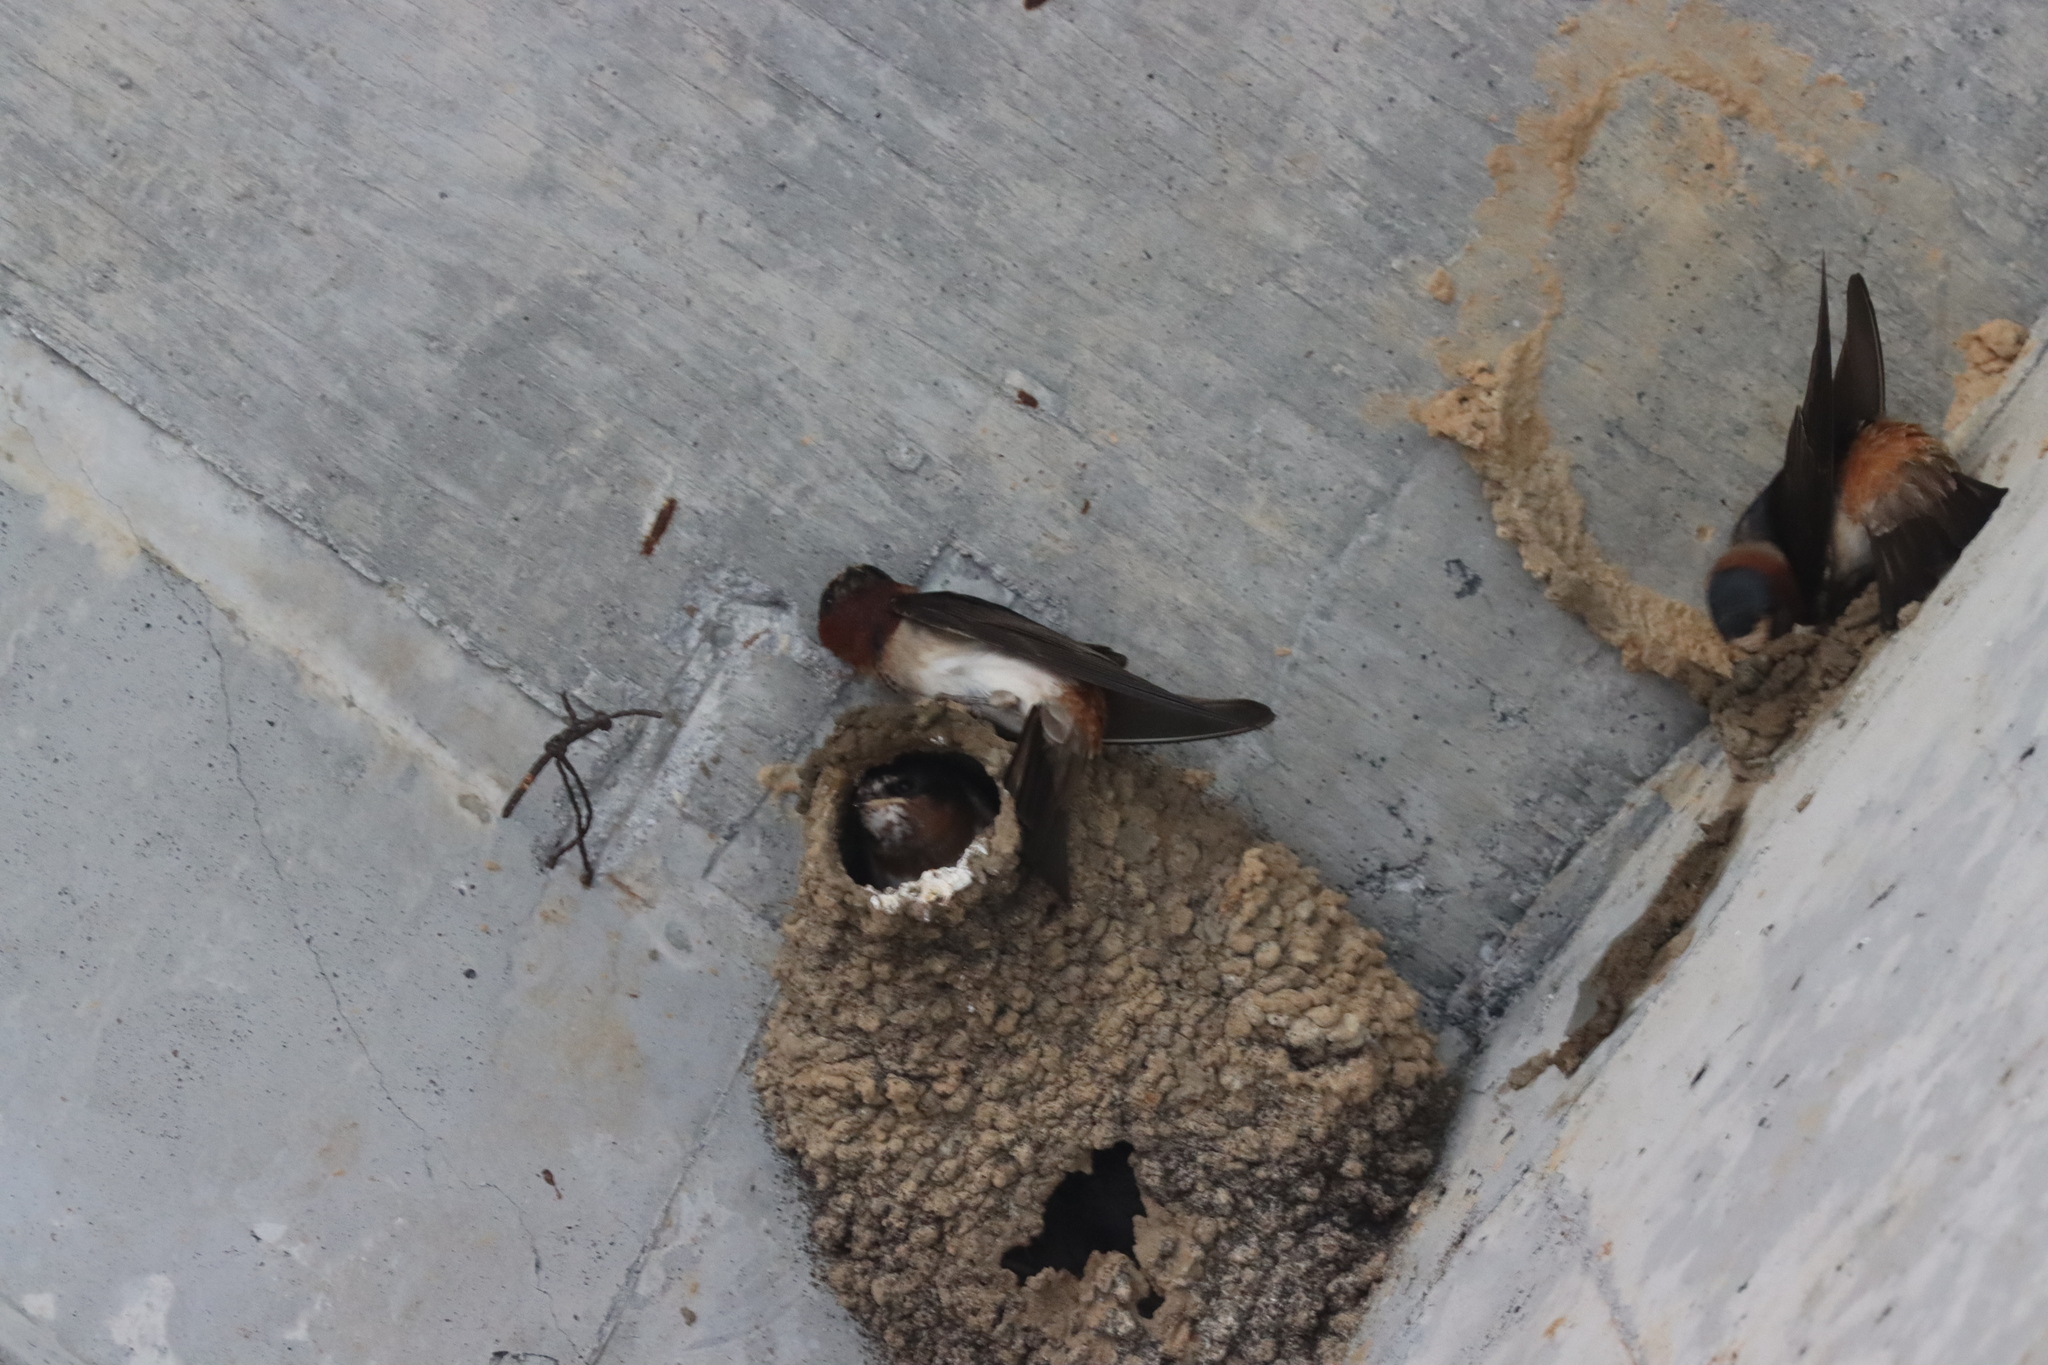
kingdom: Animalia
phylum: Chordata
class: Aves
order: Passeriformes
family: Hirundinidae
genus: Petrochelidon
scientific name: Petrochelidon pyrrhonota
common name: American cliff swallow
